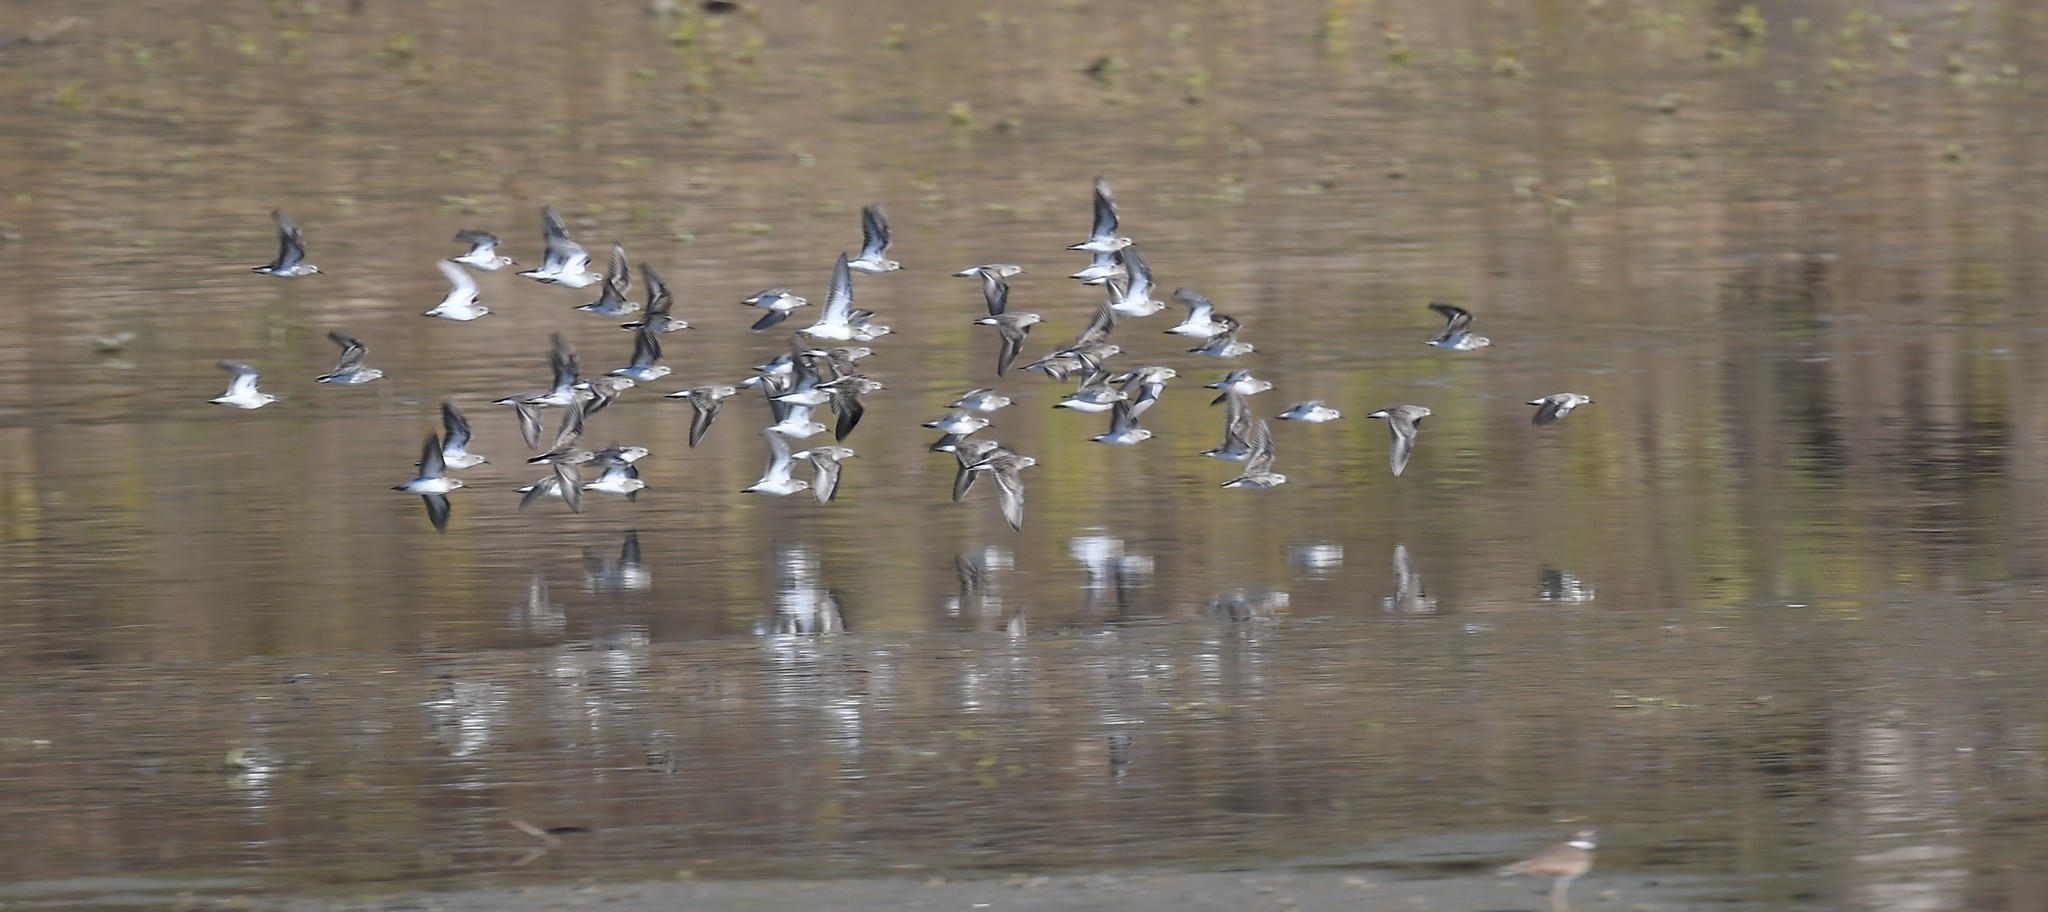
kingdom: Animalia
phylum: Chordata
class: Aves
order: Charadriiformes
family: Scolopacidae
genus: Calidris
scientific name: Calidris minutilla
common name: Least sandpiper
